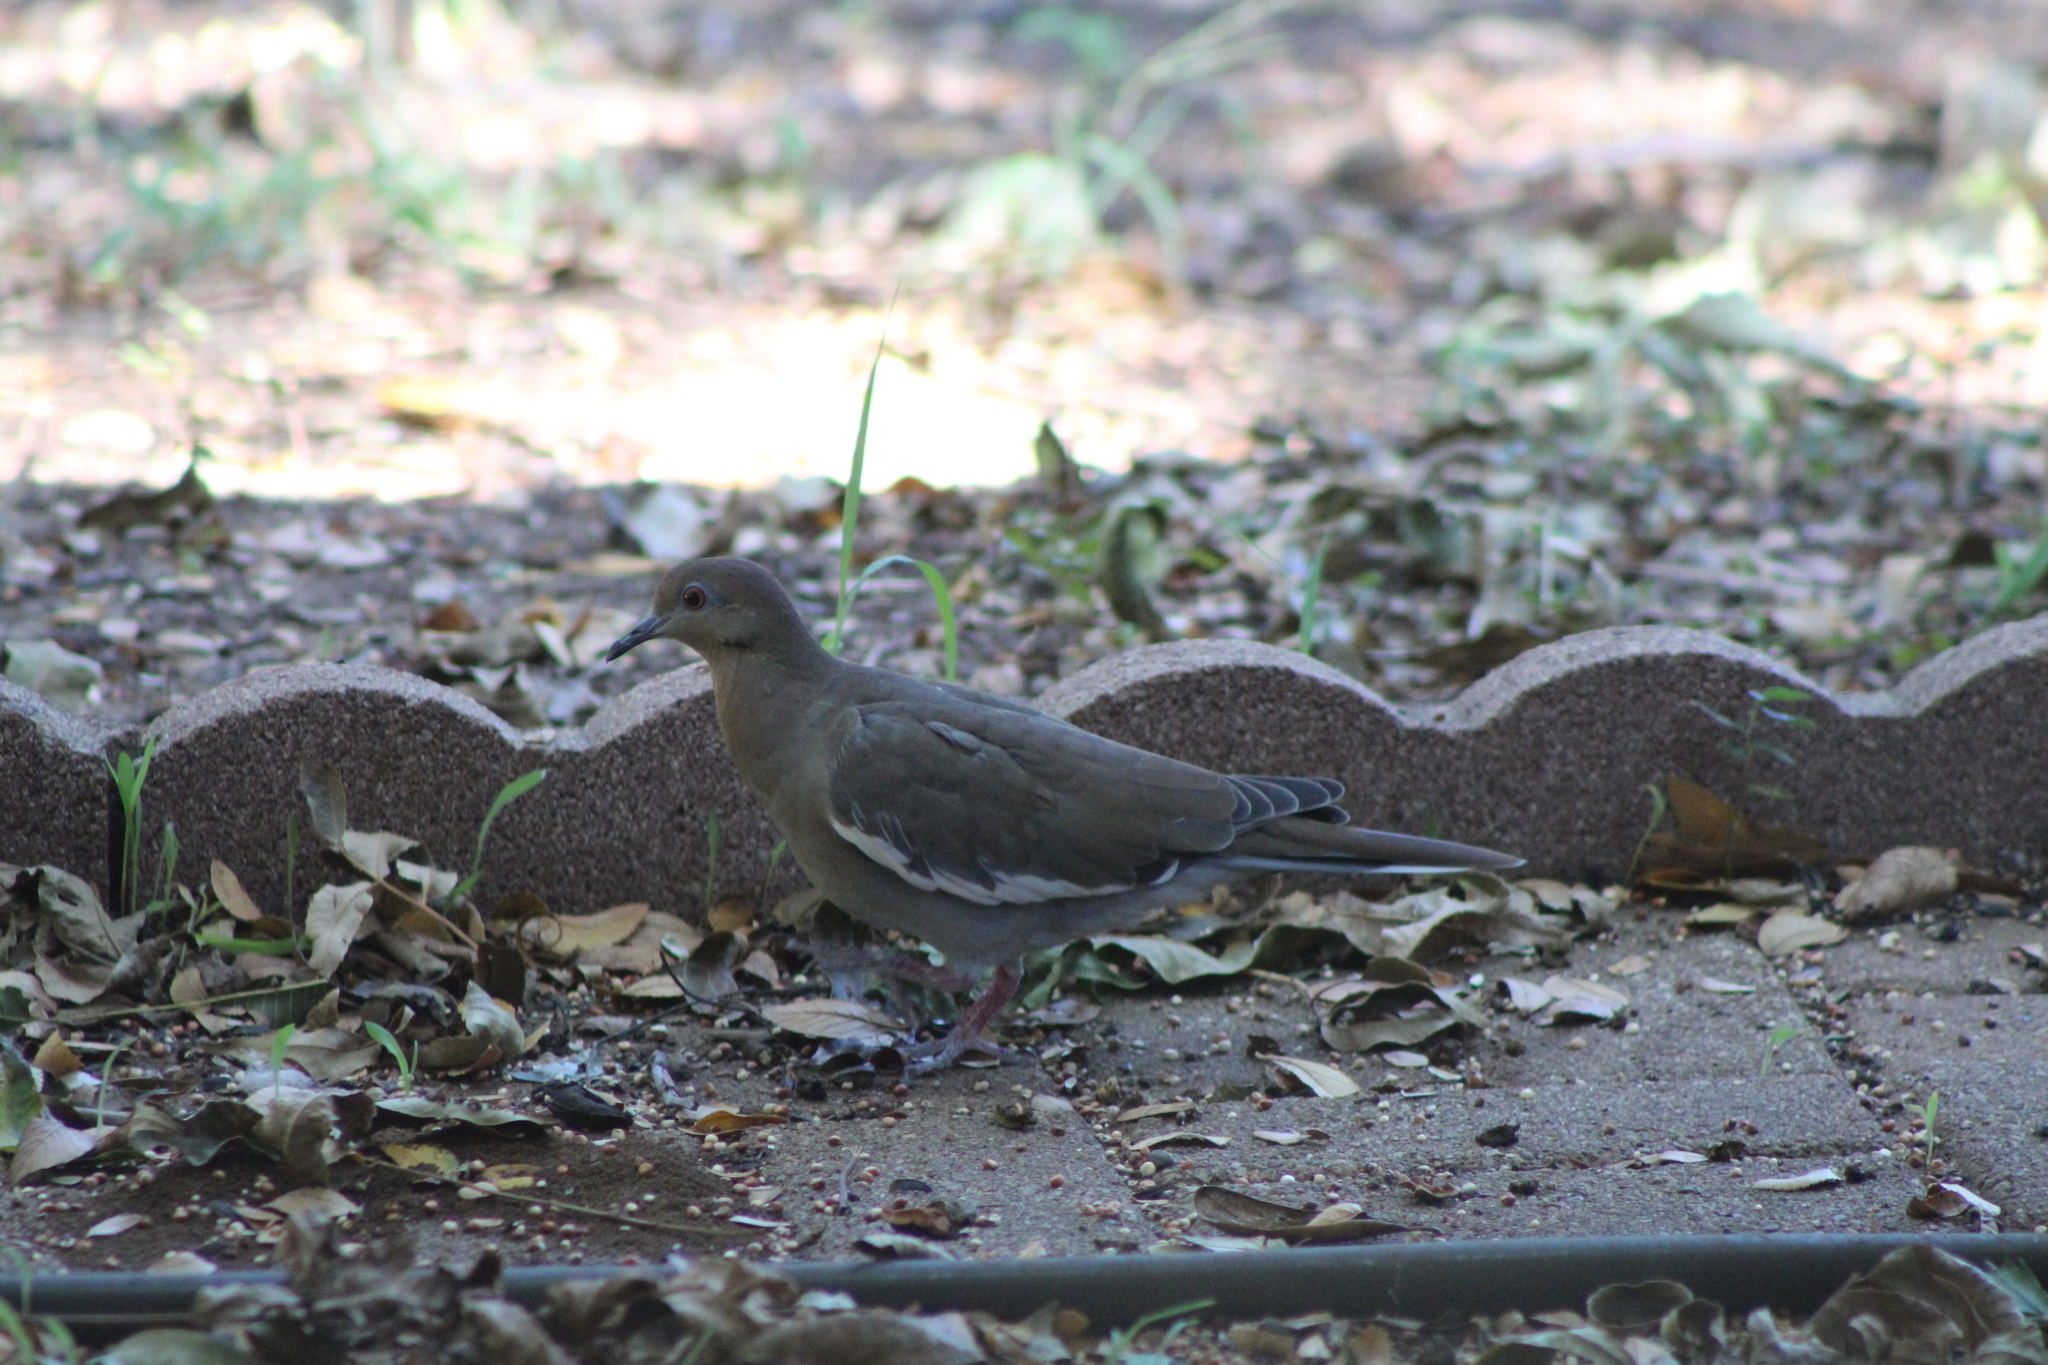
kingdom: Animalia
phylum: Chordata
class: Aves
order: Columbiformes
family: Columbidae
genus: Zenaida
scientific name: Zenaida asiatica
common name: White-winged dove
